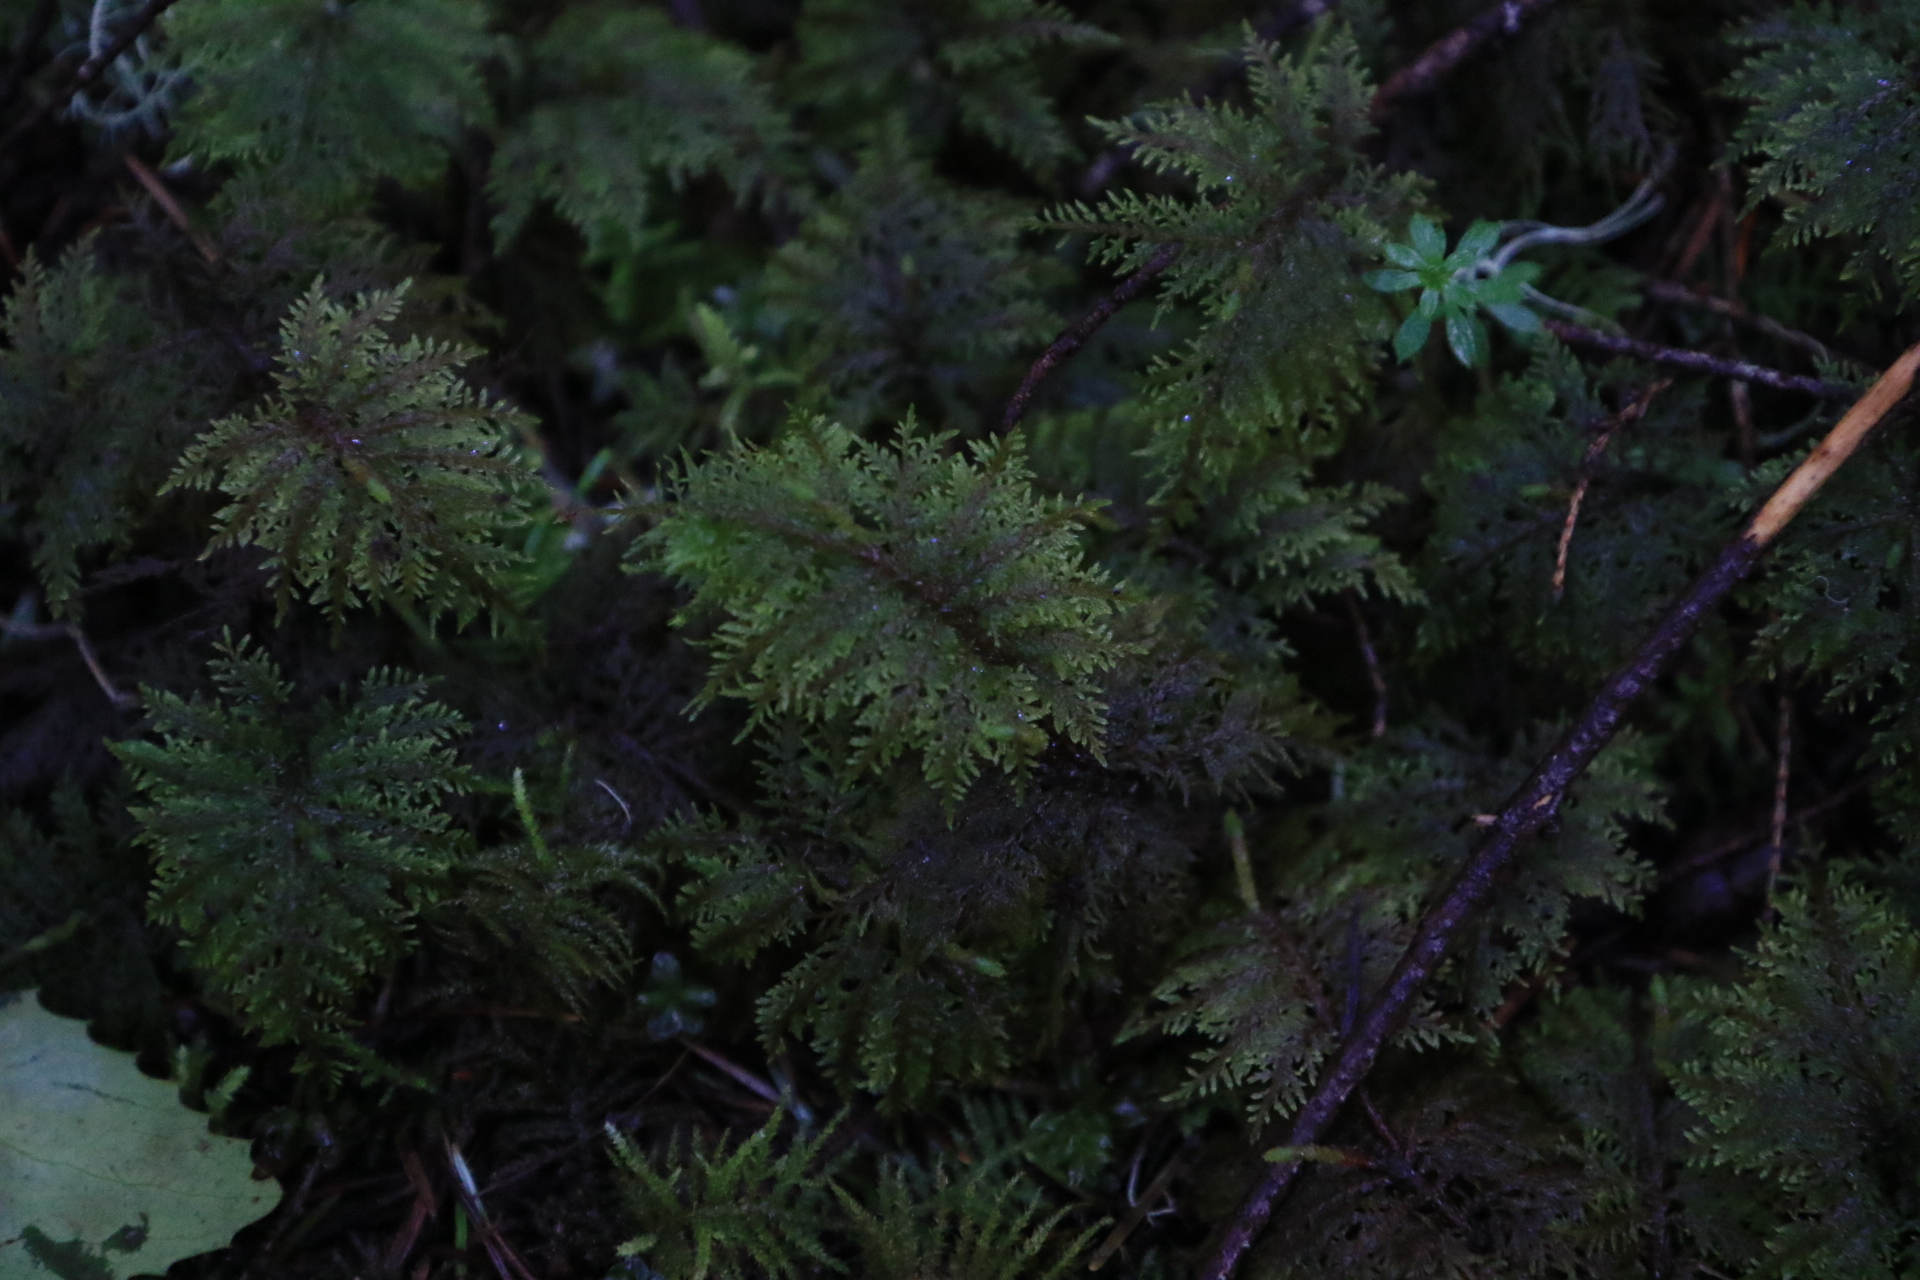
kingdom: Plantae
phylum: Bryophyta
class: Bryopsida
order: Hypnales
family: Hylocomiaceae
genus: Hylocomium
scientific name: Hylocomium splendens
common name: Stairstep moss
